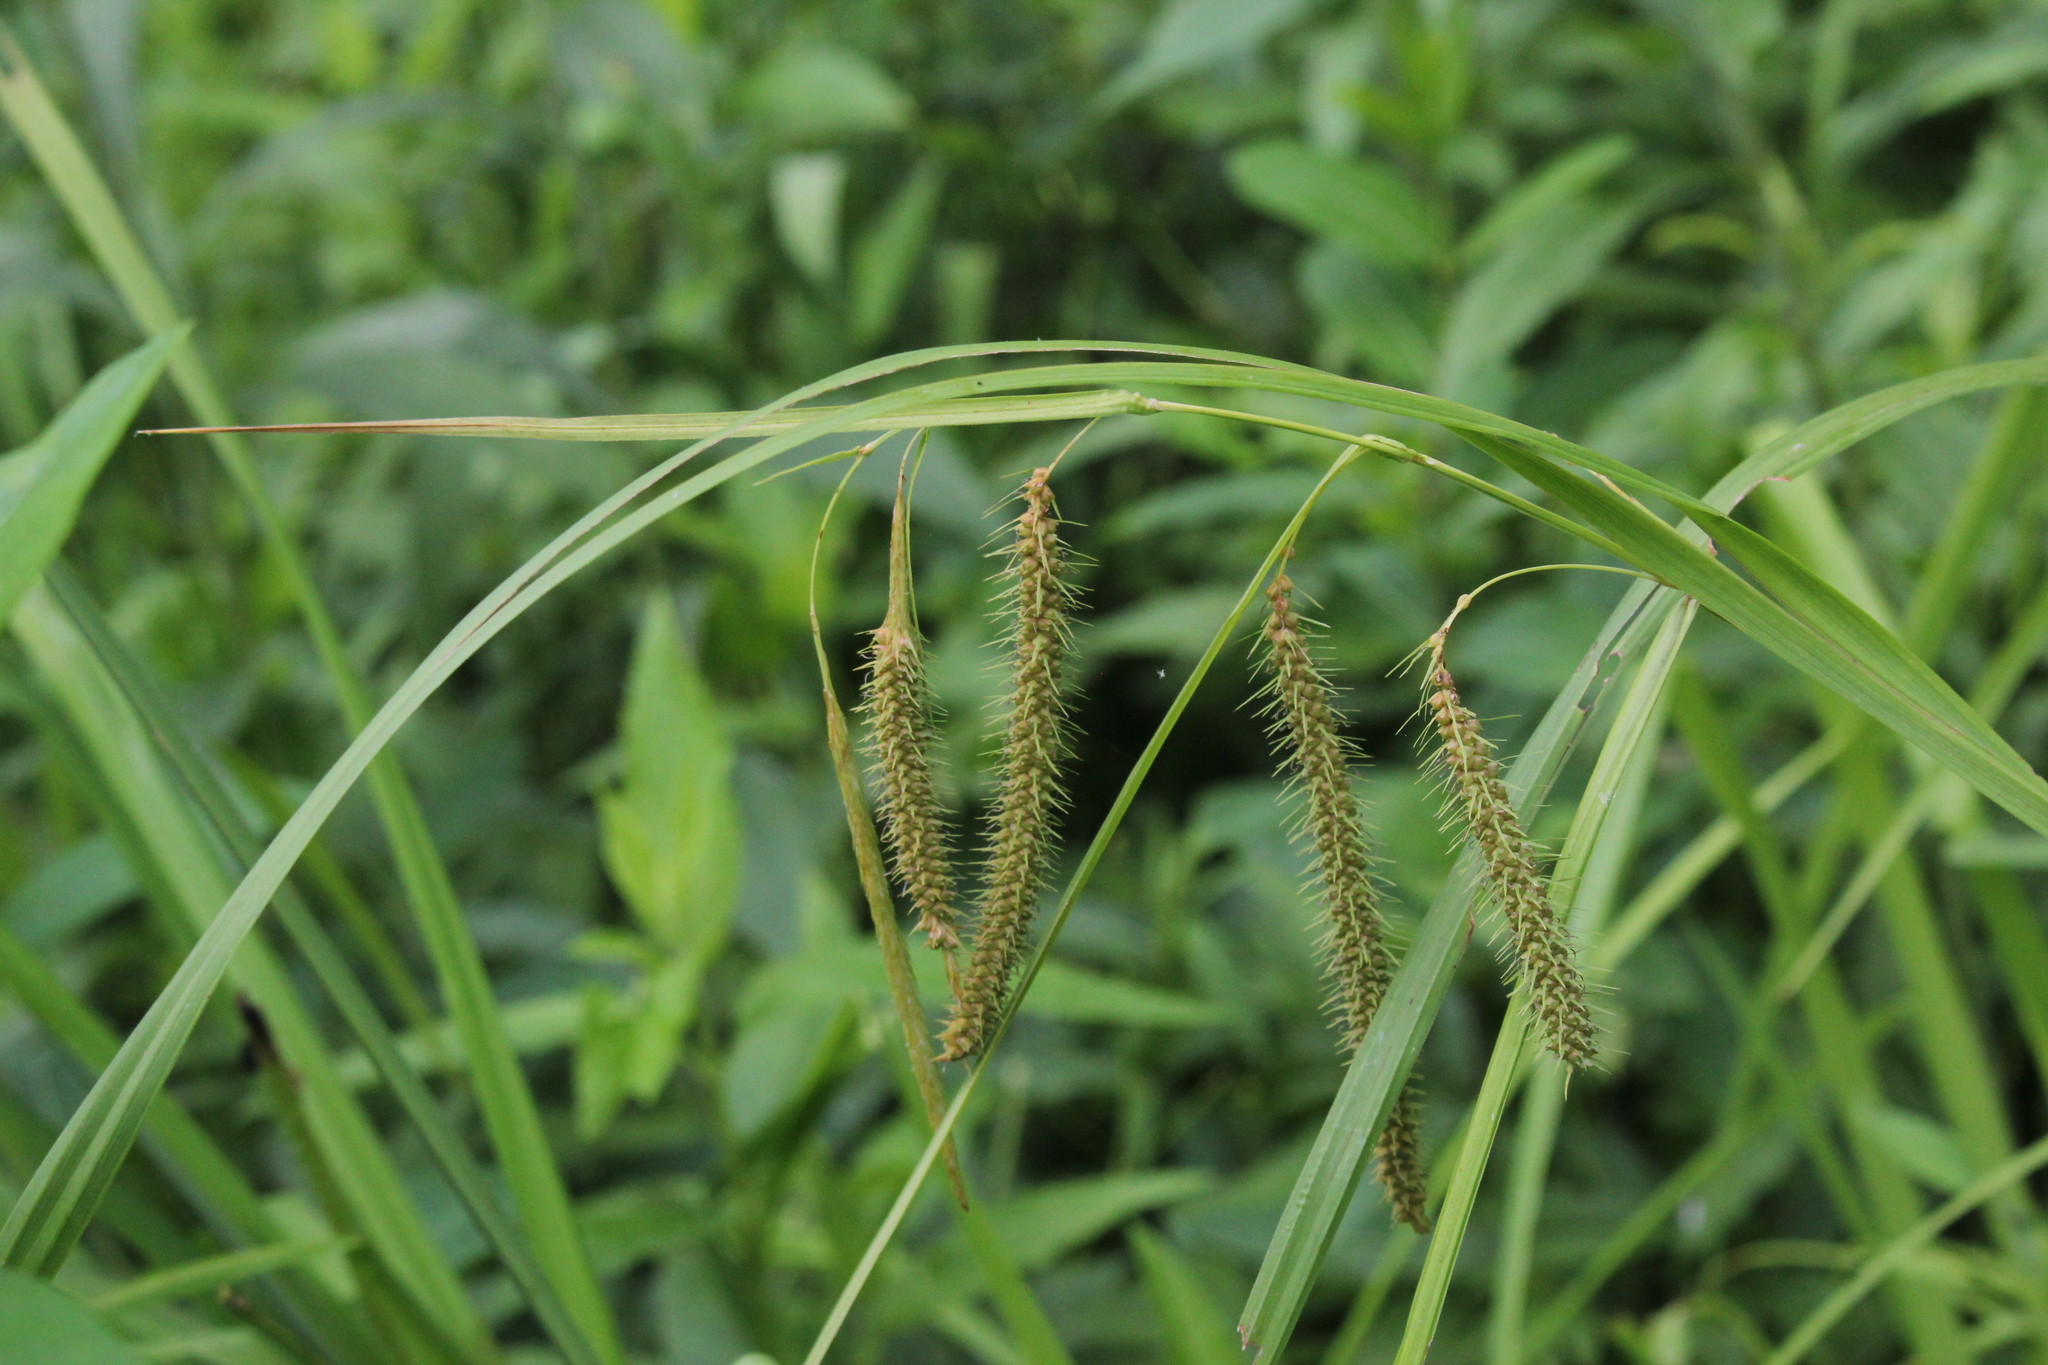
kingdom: Plantae
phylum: Tracheophyta
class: Liliopsida
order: Poales
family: Cyperaceae
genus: Carex
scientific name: Carex crinita
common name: Fringed sedge
